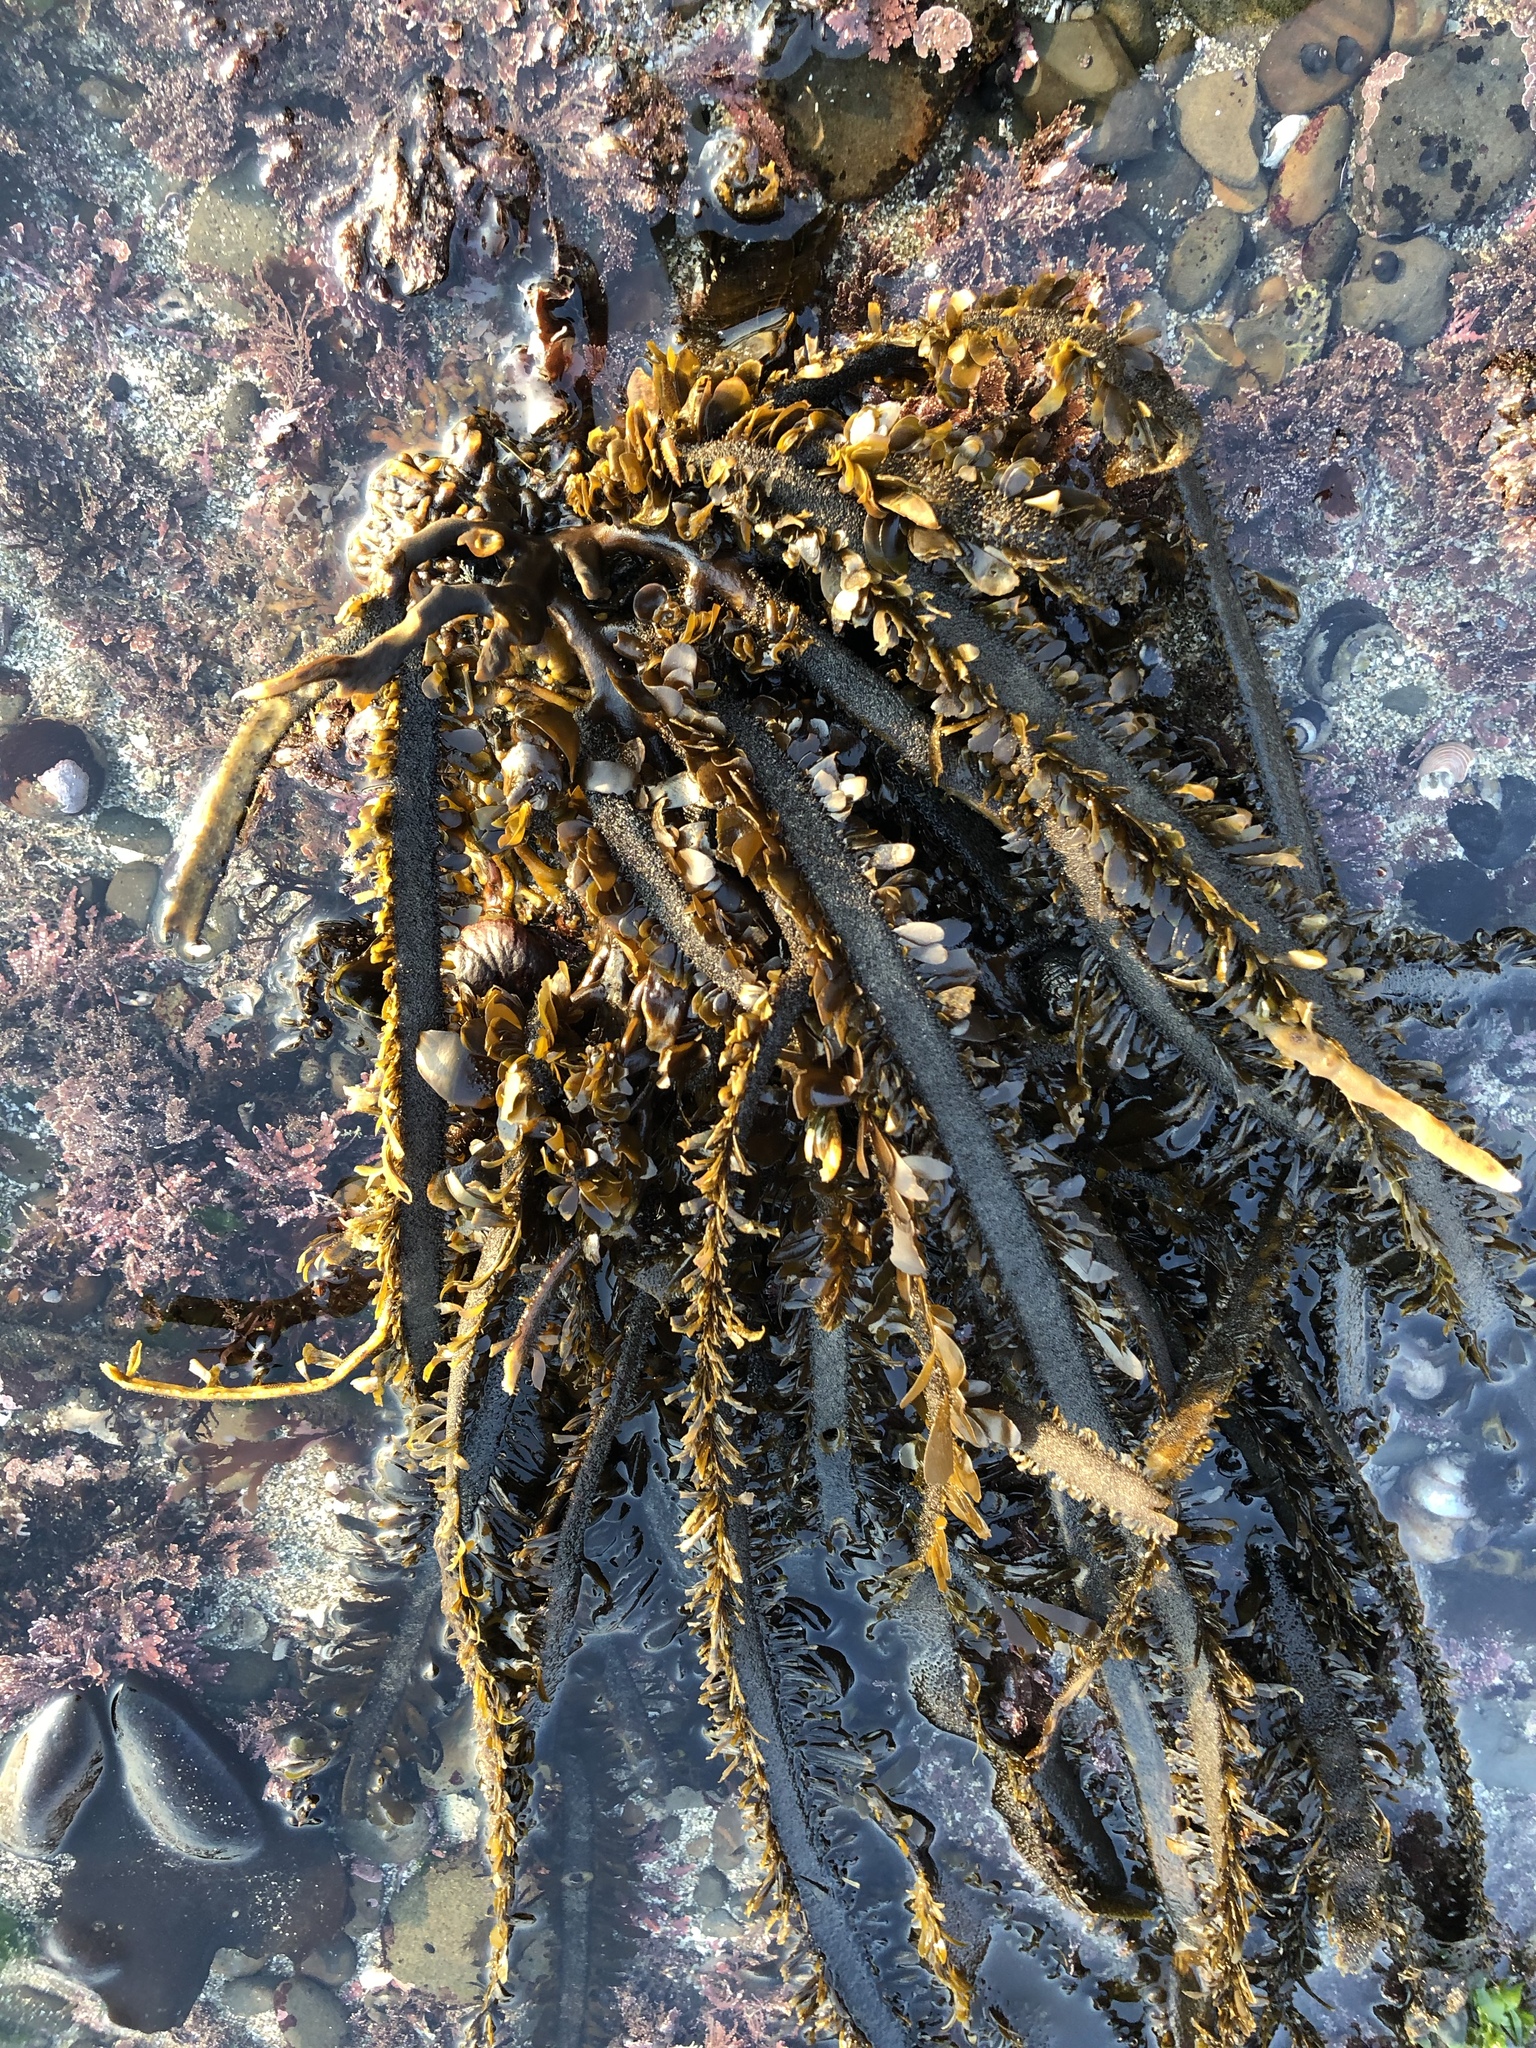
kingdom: Chromista
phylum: Ochrophyta
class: Phaeophyceae
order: Laminariales
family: Lessoniaceae
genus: Egregia
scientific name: Egregia menziesii
